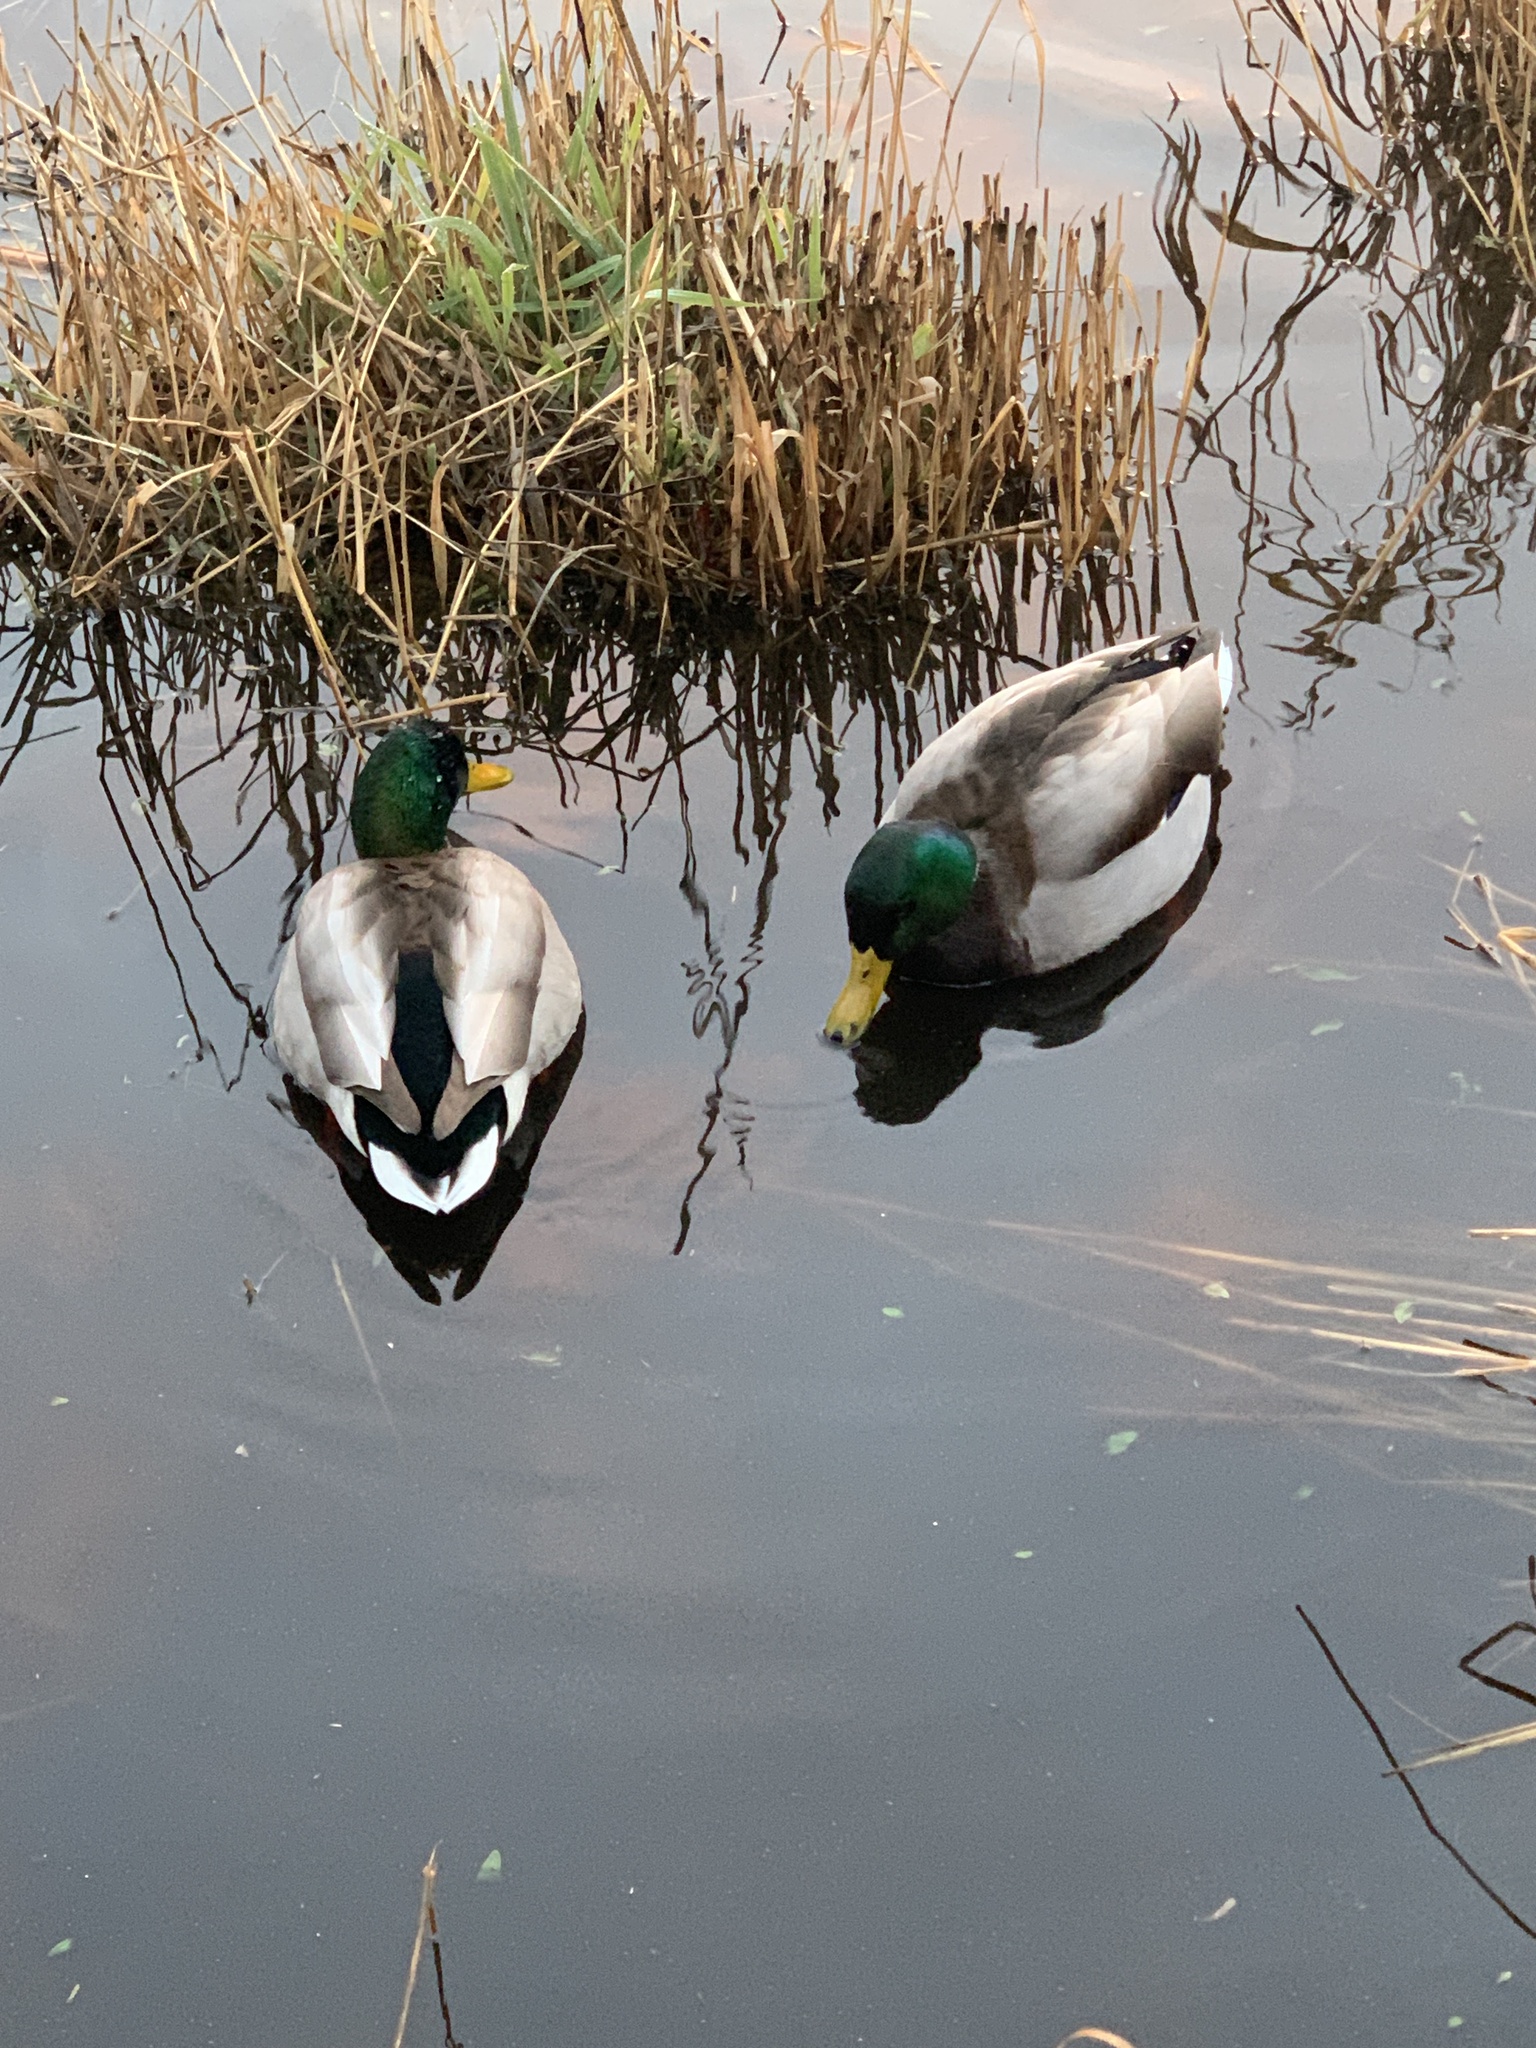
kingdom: Animalia
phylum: Chordata
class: Aves
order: Anseriformes
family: Anatidae
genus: Anas
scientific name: Anas platyrhynchos
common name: Mallard
